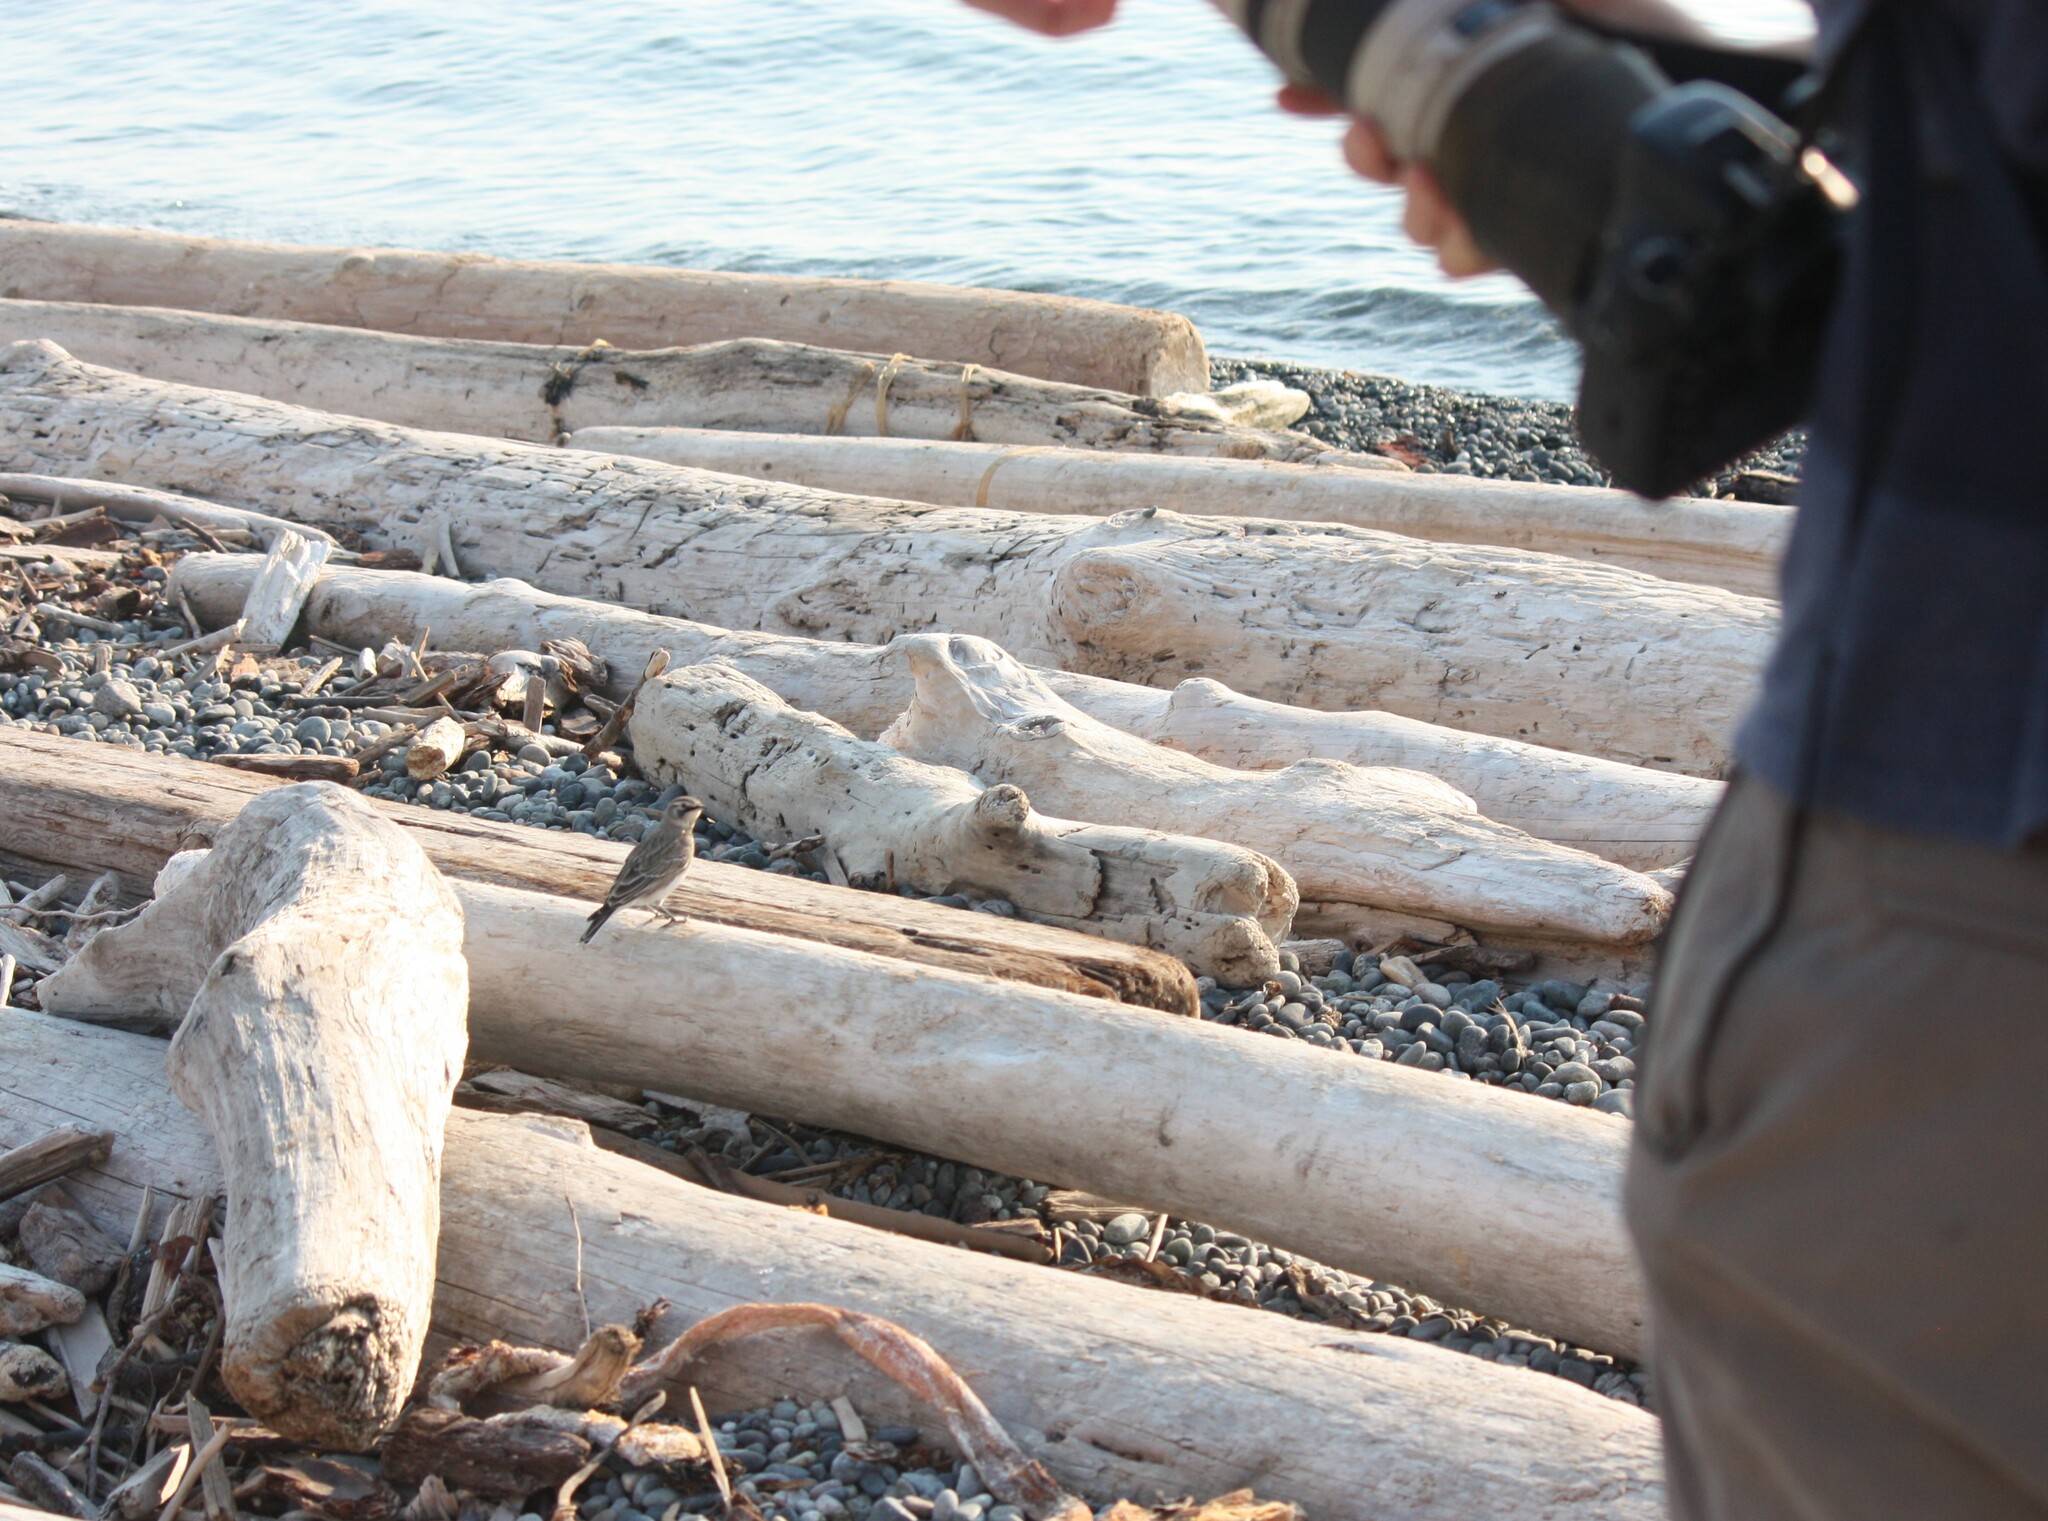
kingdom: Animalia
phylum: Chordata
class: Aves
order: Passeriformes
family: Alaudidae
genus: Eremophila
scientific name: Eremophila alpestris
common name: Horned lark
